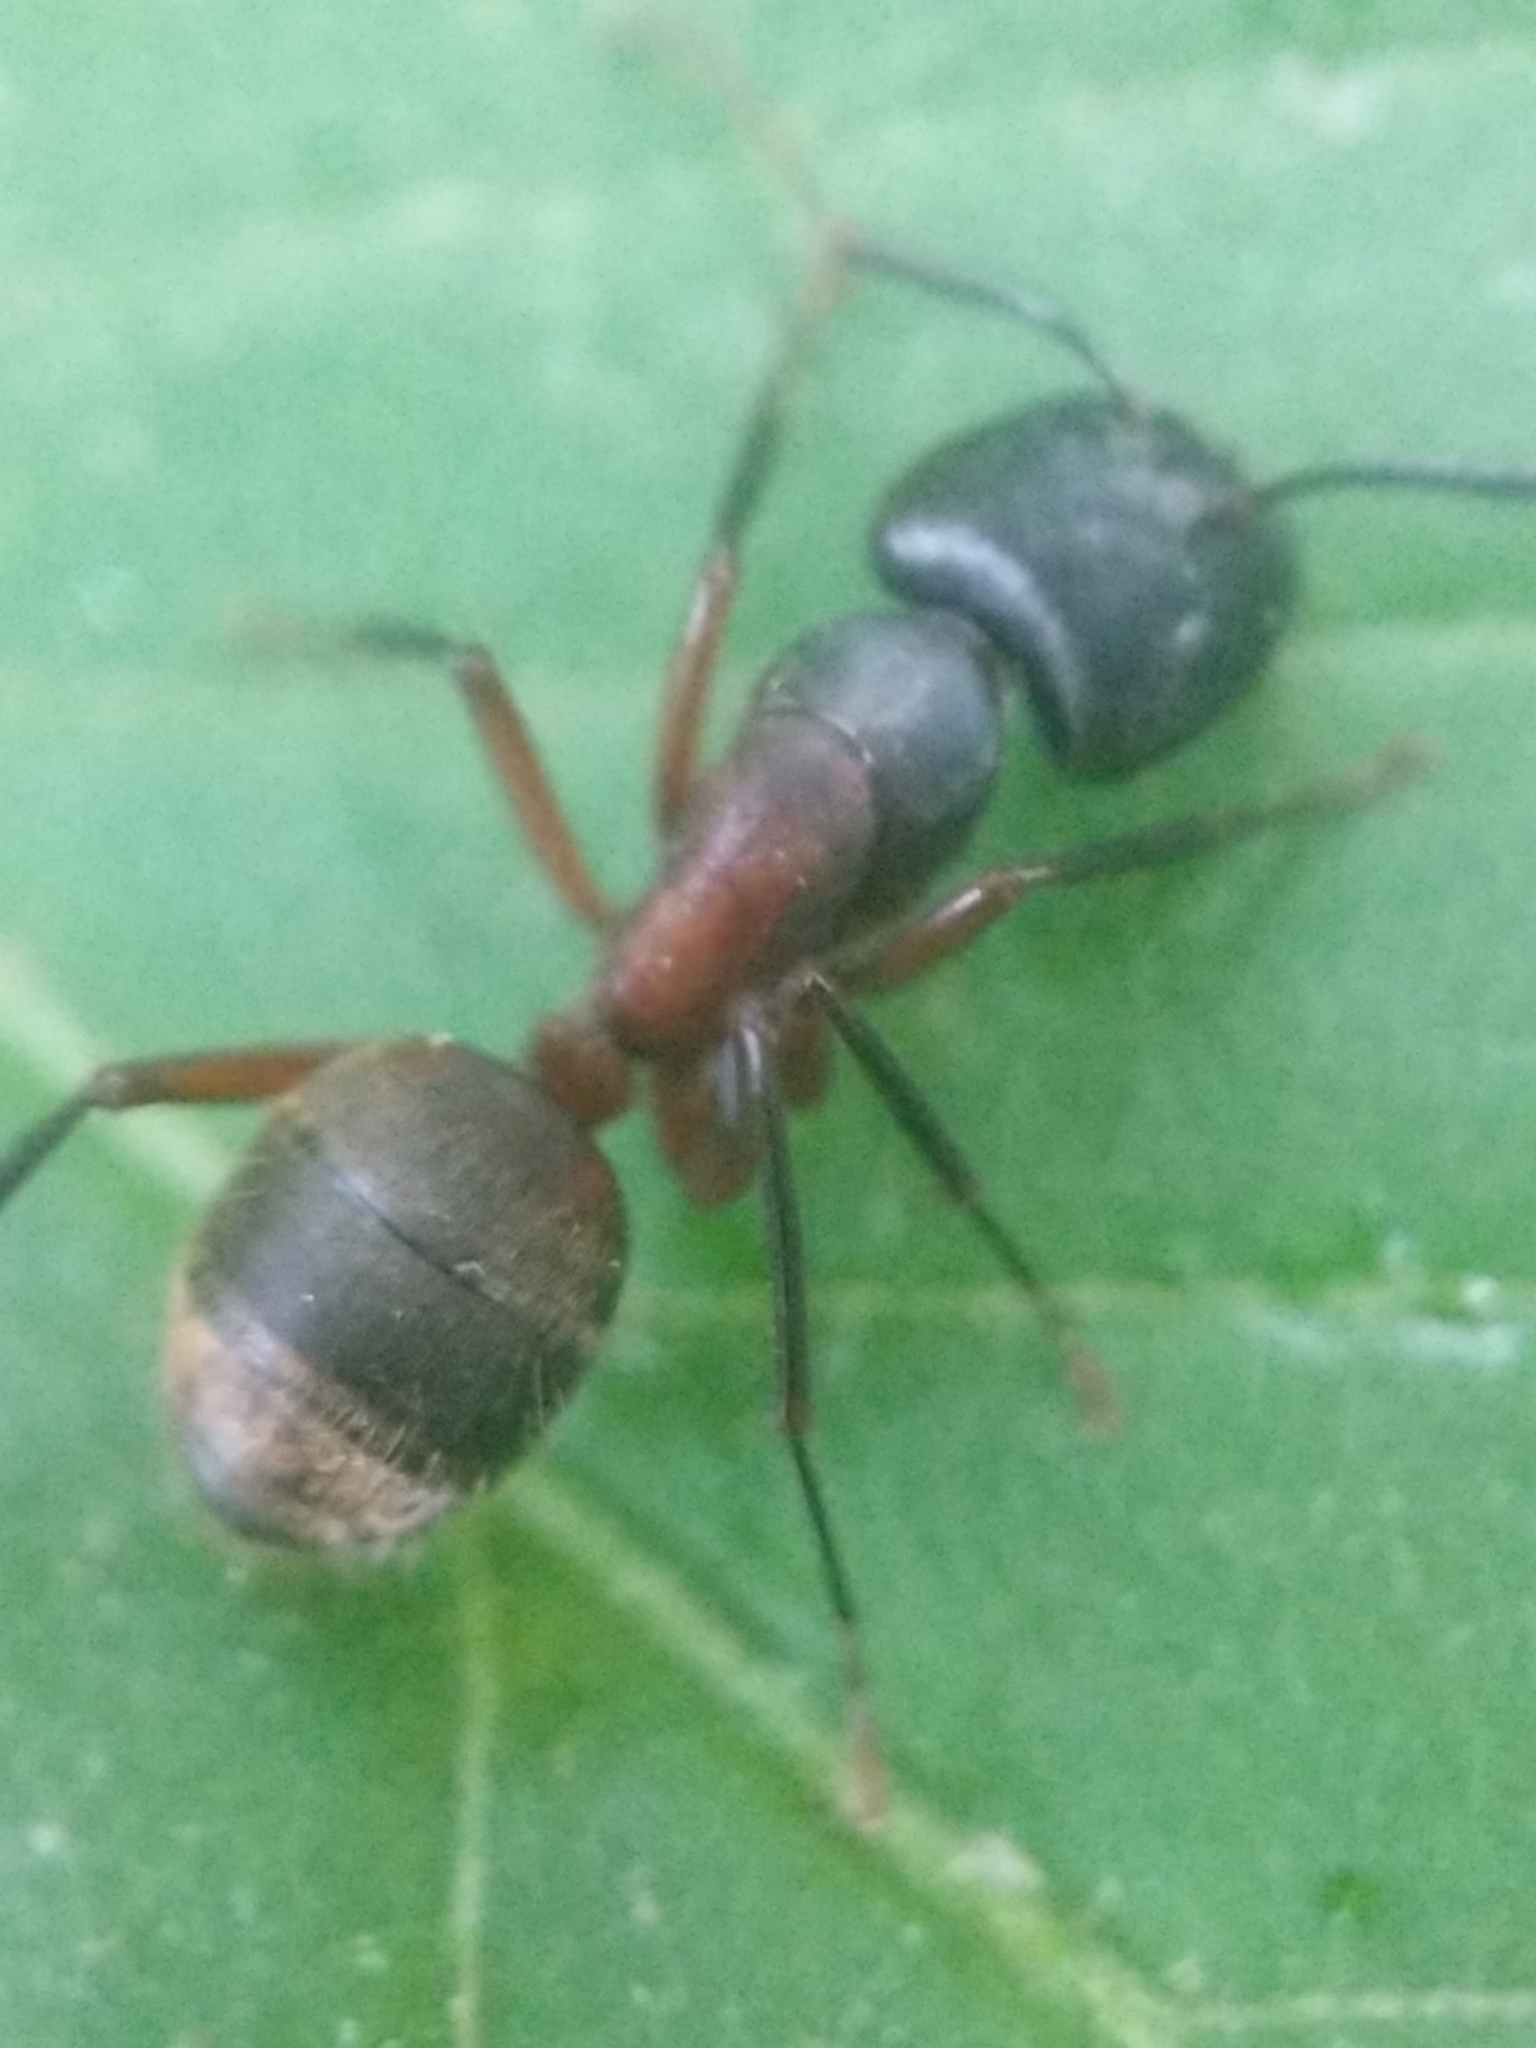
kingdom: Animalia
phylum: Arthropoda
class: Insecta
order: Hymenoptera
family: Formicidae
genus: Camponotus
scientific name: Camponotus chromaiodes
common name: Red carpenter ant
